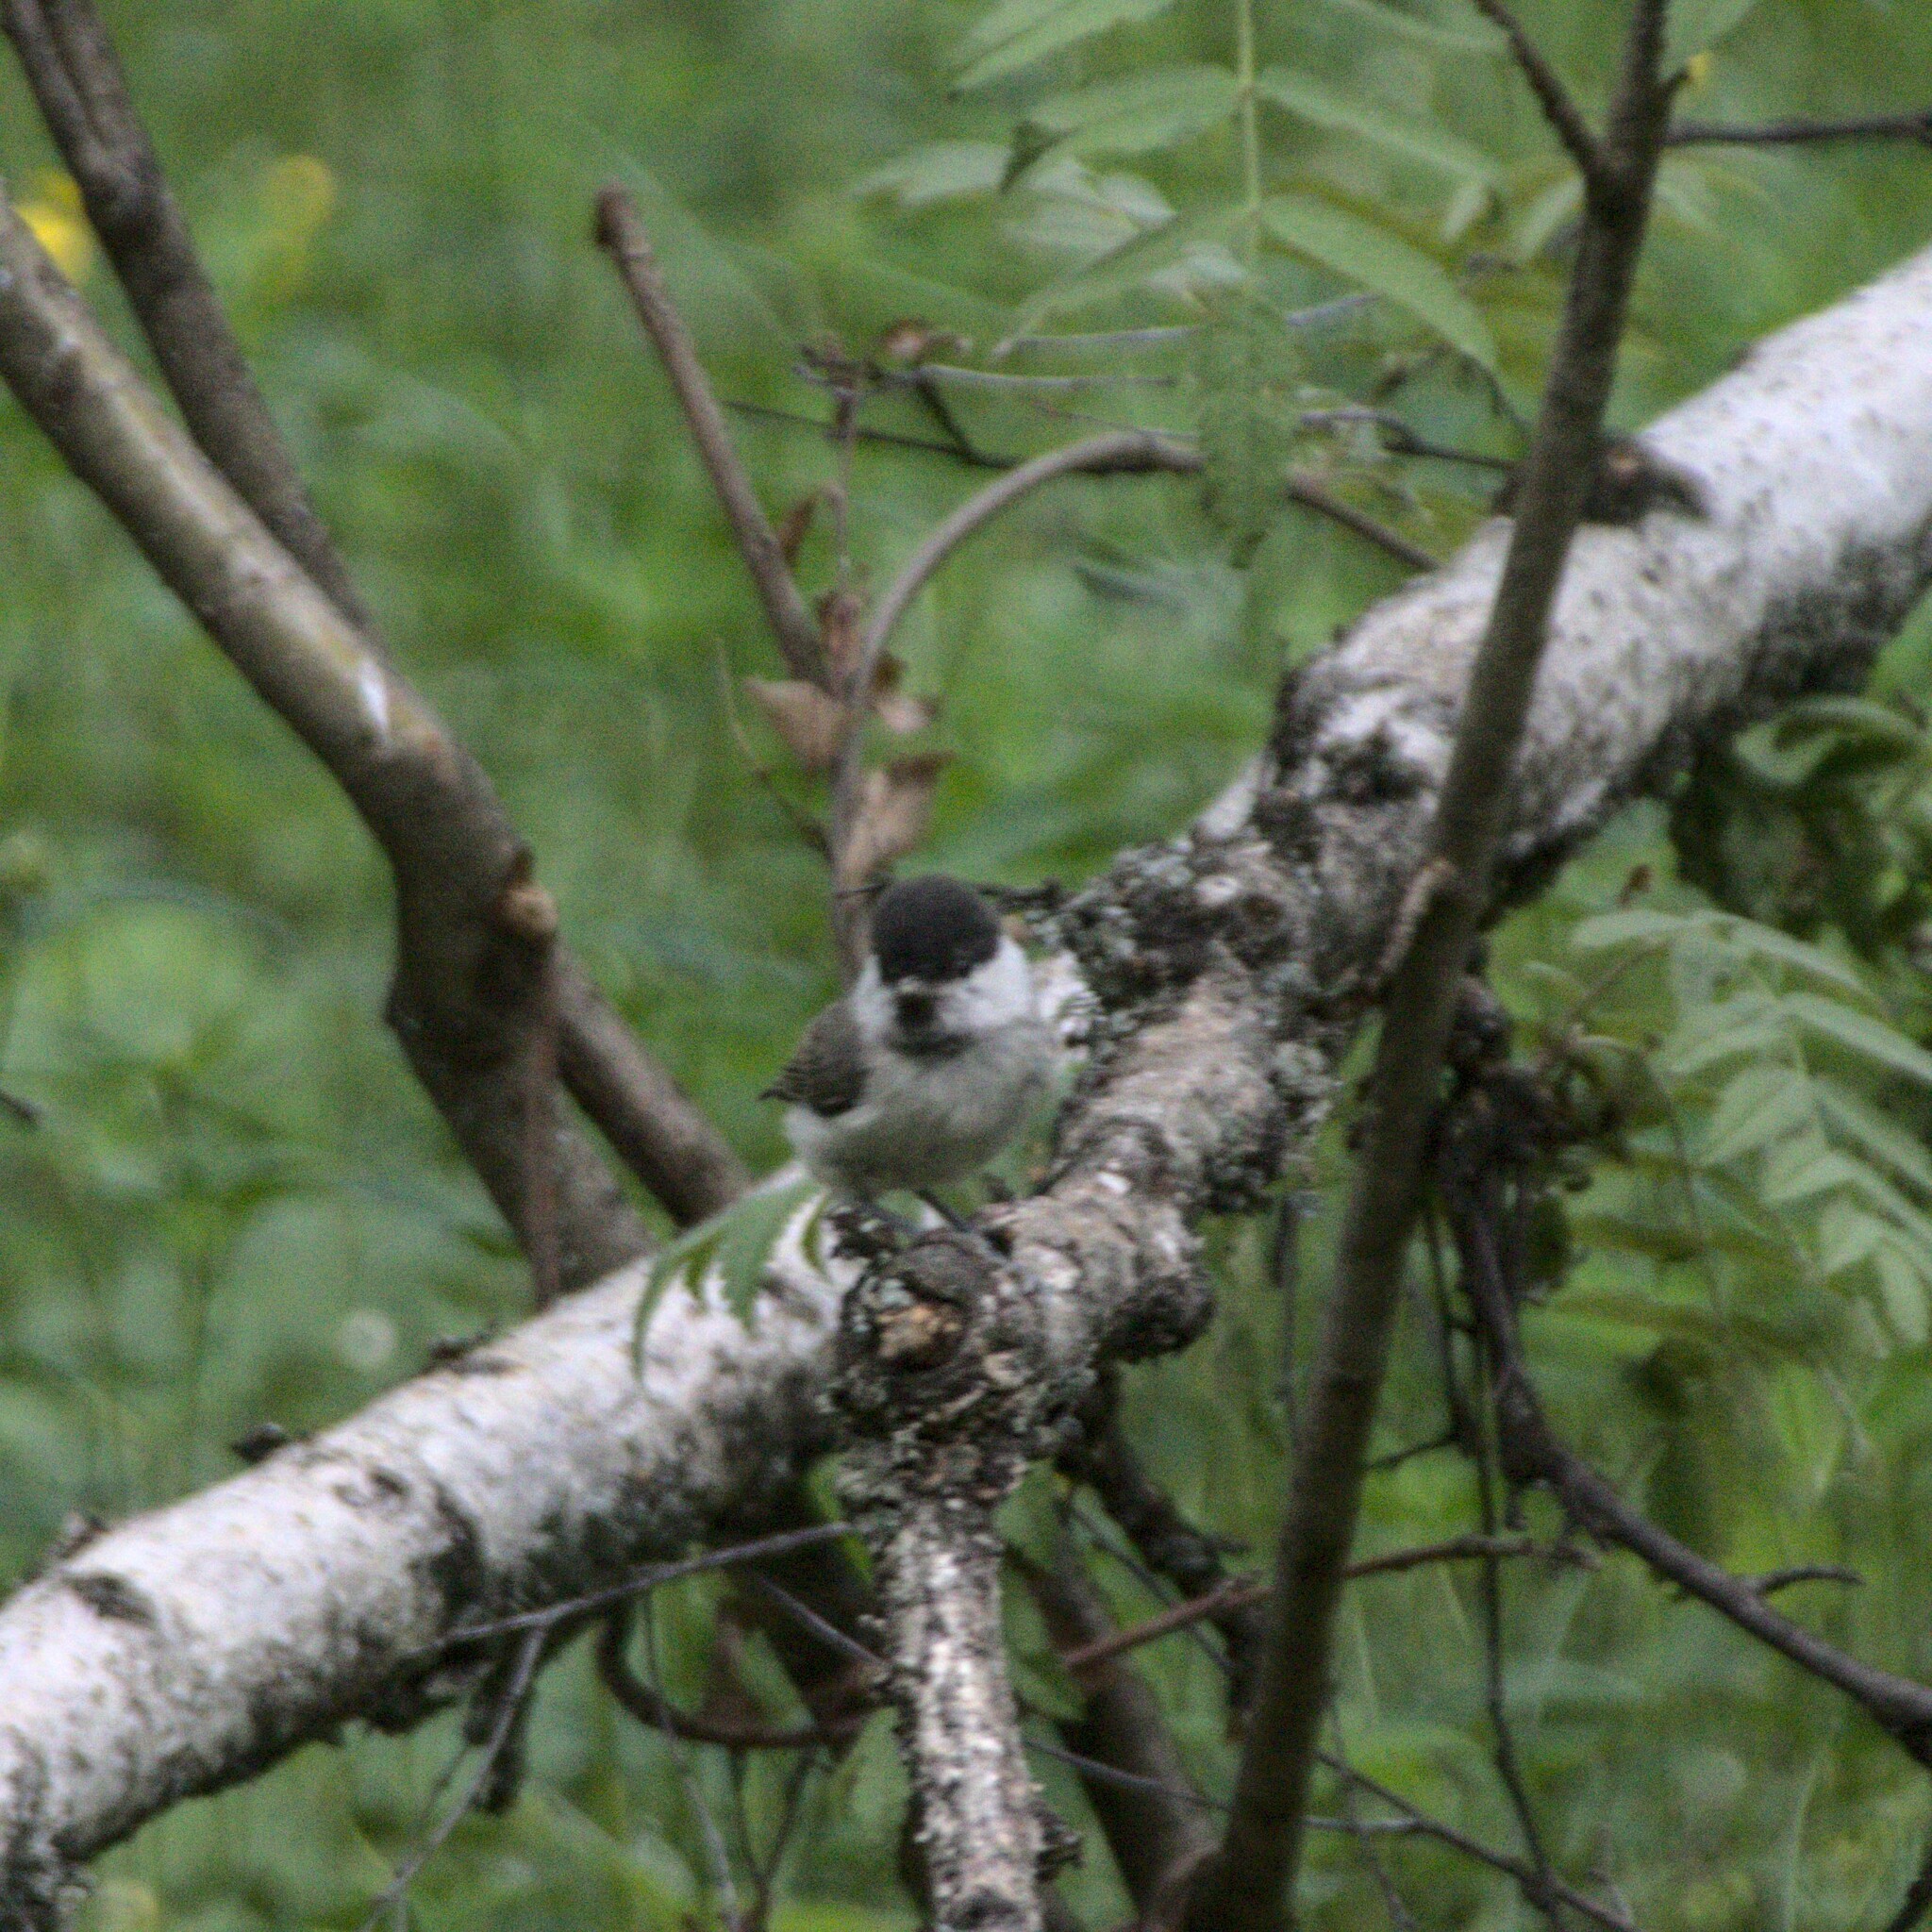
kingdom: Animalia
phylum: Chordata
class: Aves
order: Passeriformes
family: Paridae
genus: Poecile
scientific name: Poecile palustris
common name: Marsh tit
